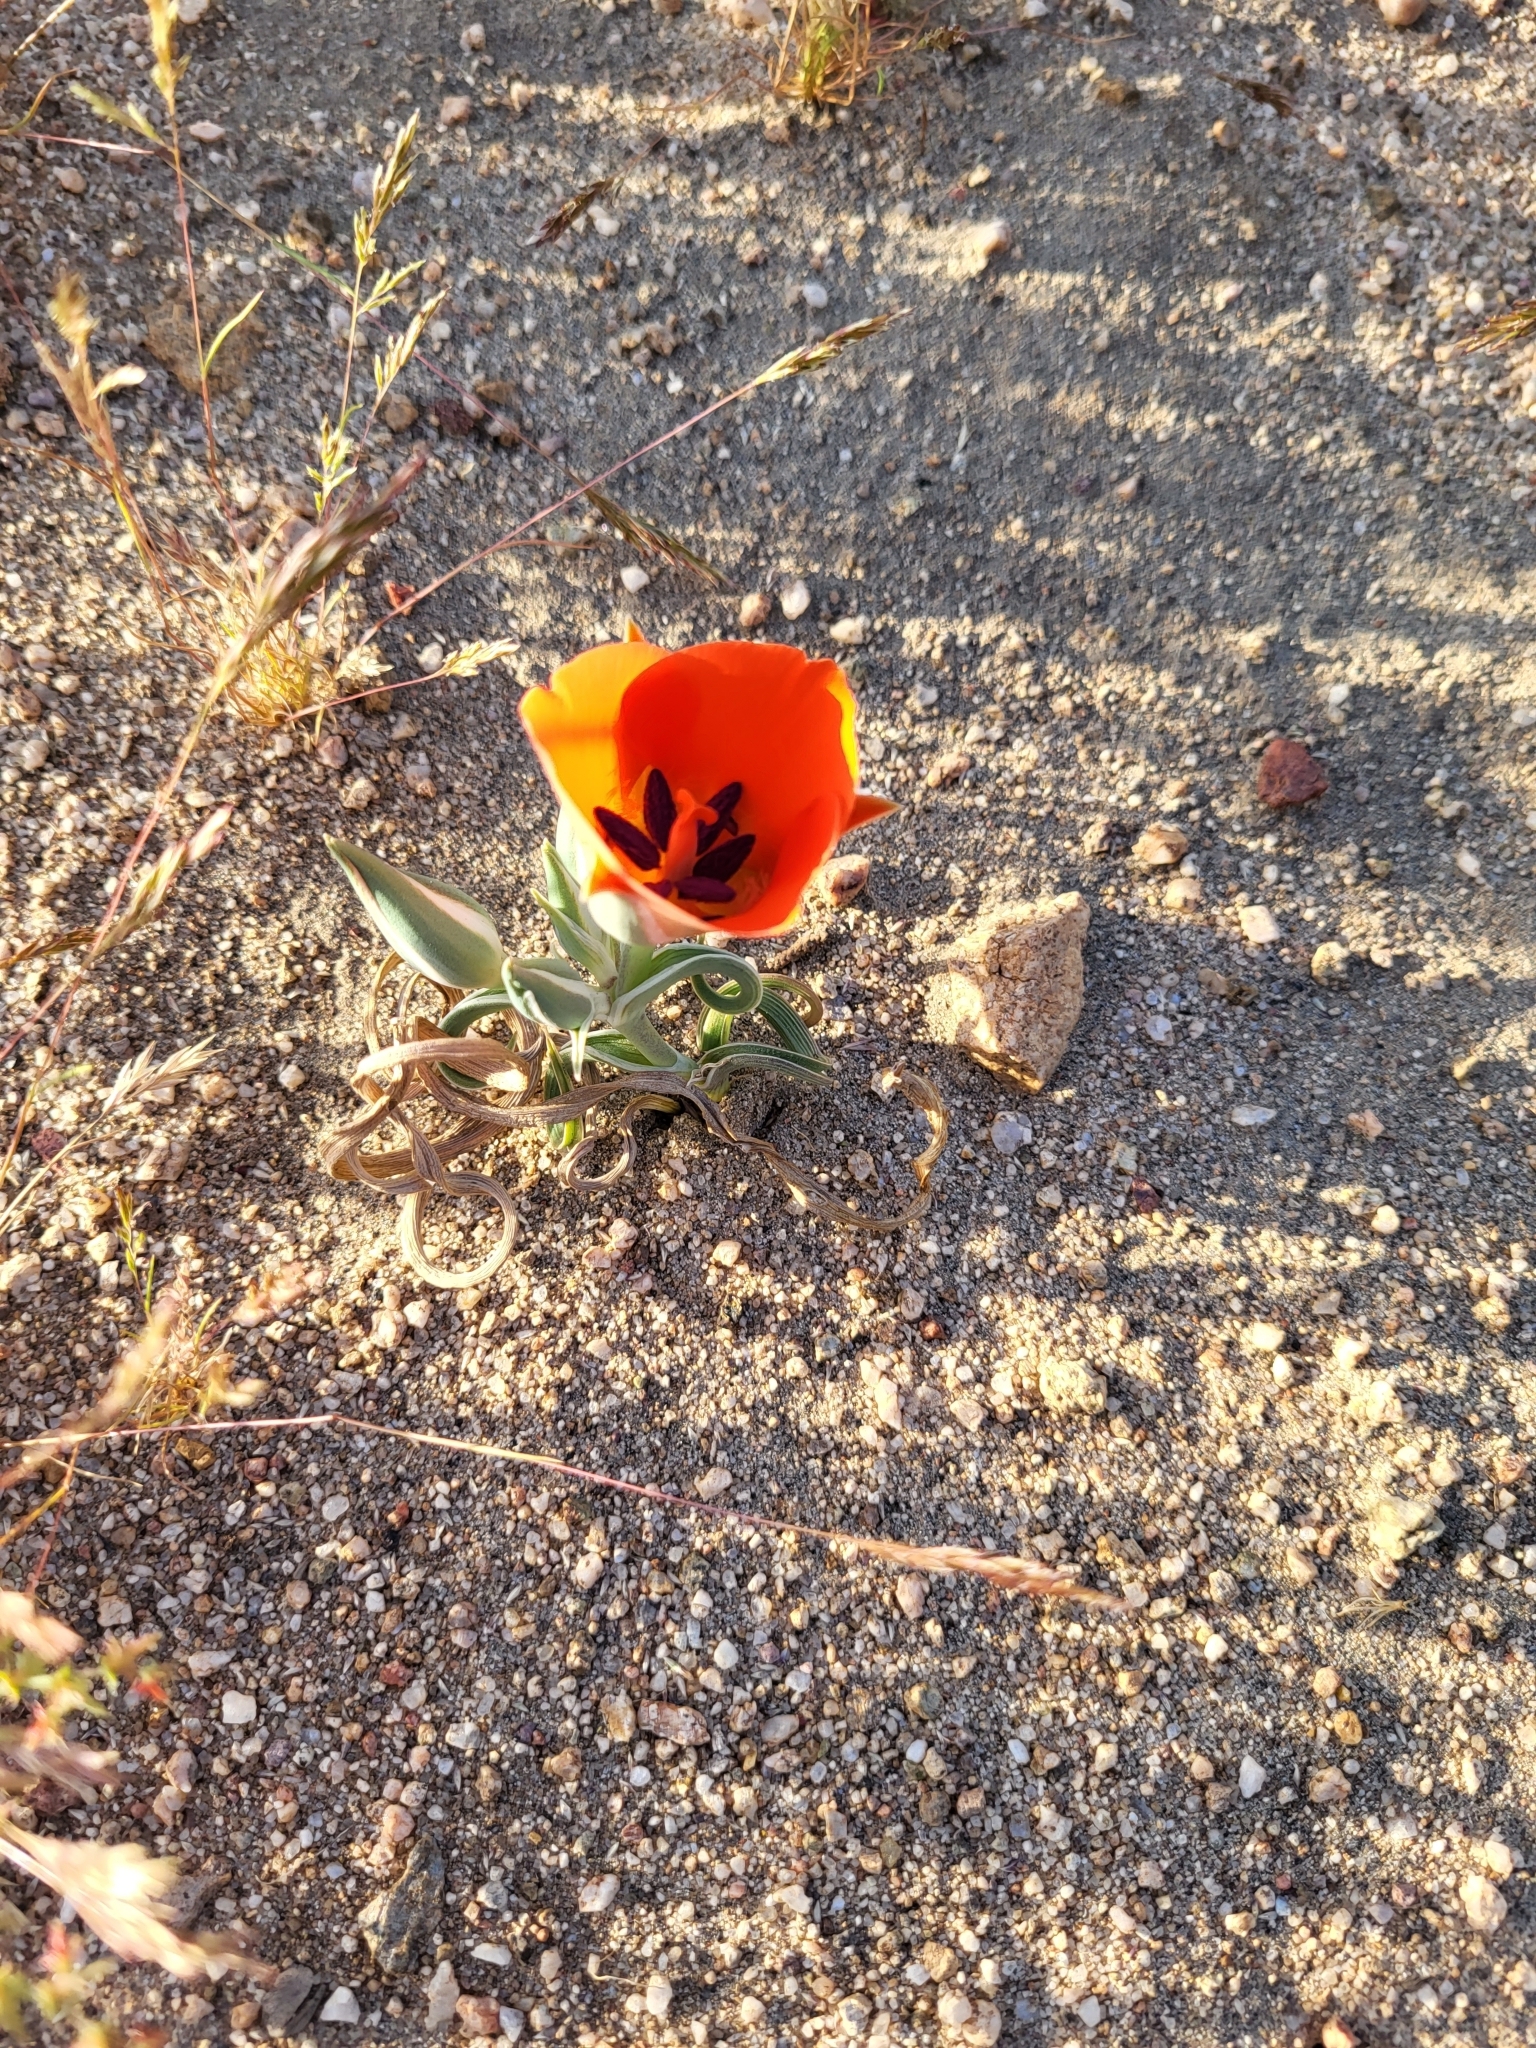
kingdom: Plantae
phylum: Tracheophyta
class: Liliopsida
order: Liliales
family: Liliaceae
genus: Calochortus
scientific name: Calochortus kennedyi
